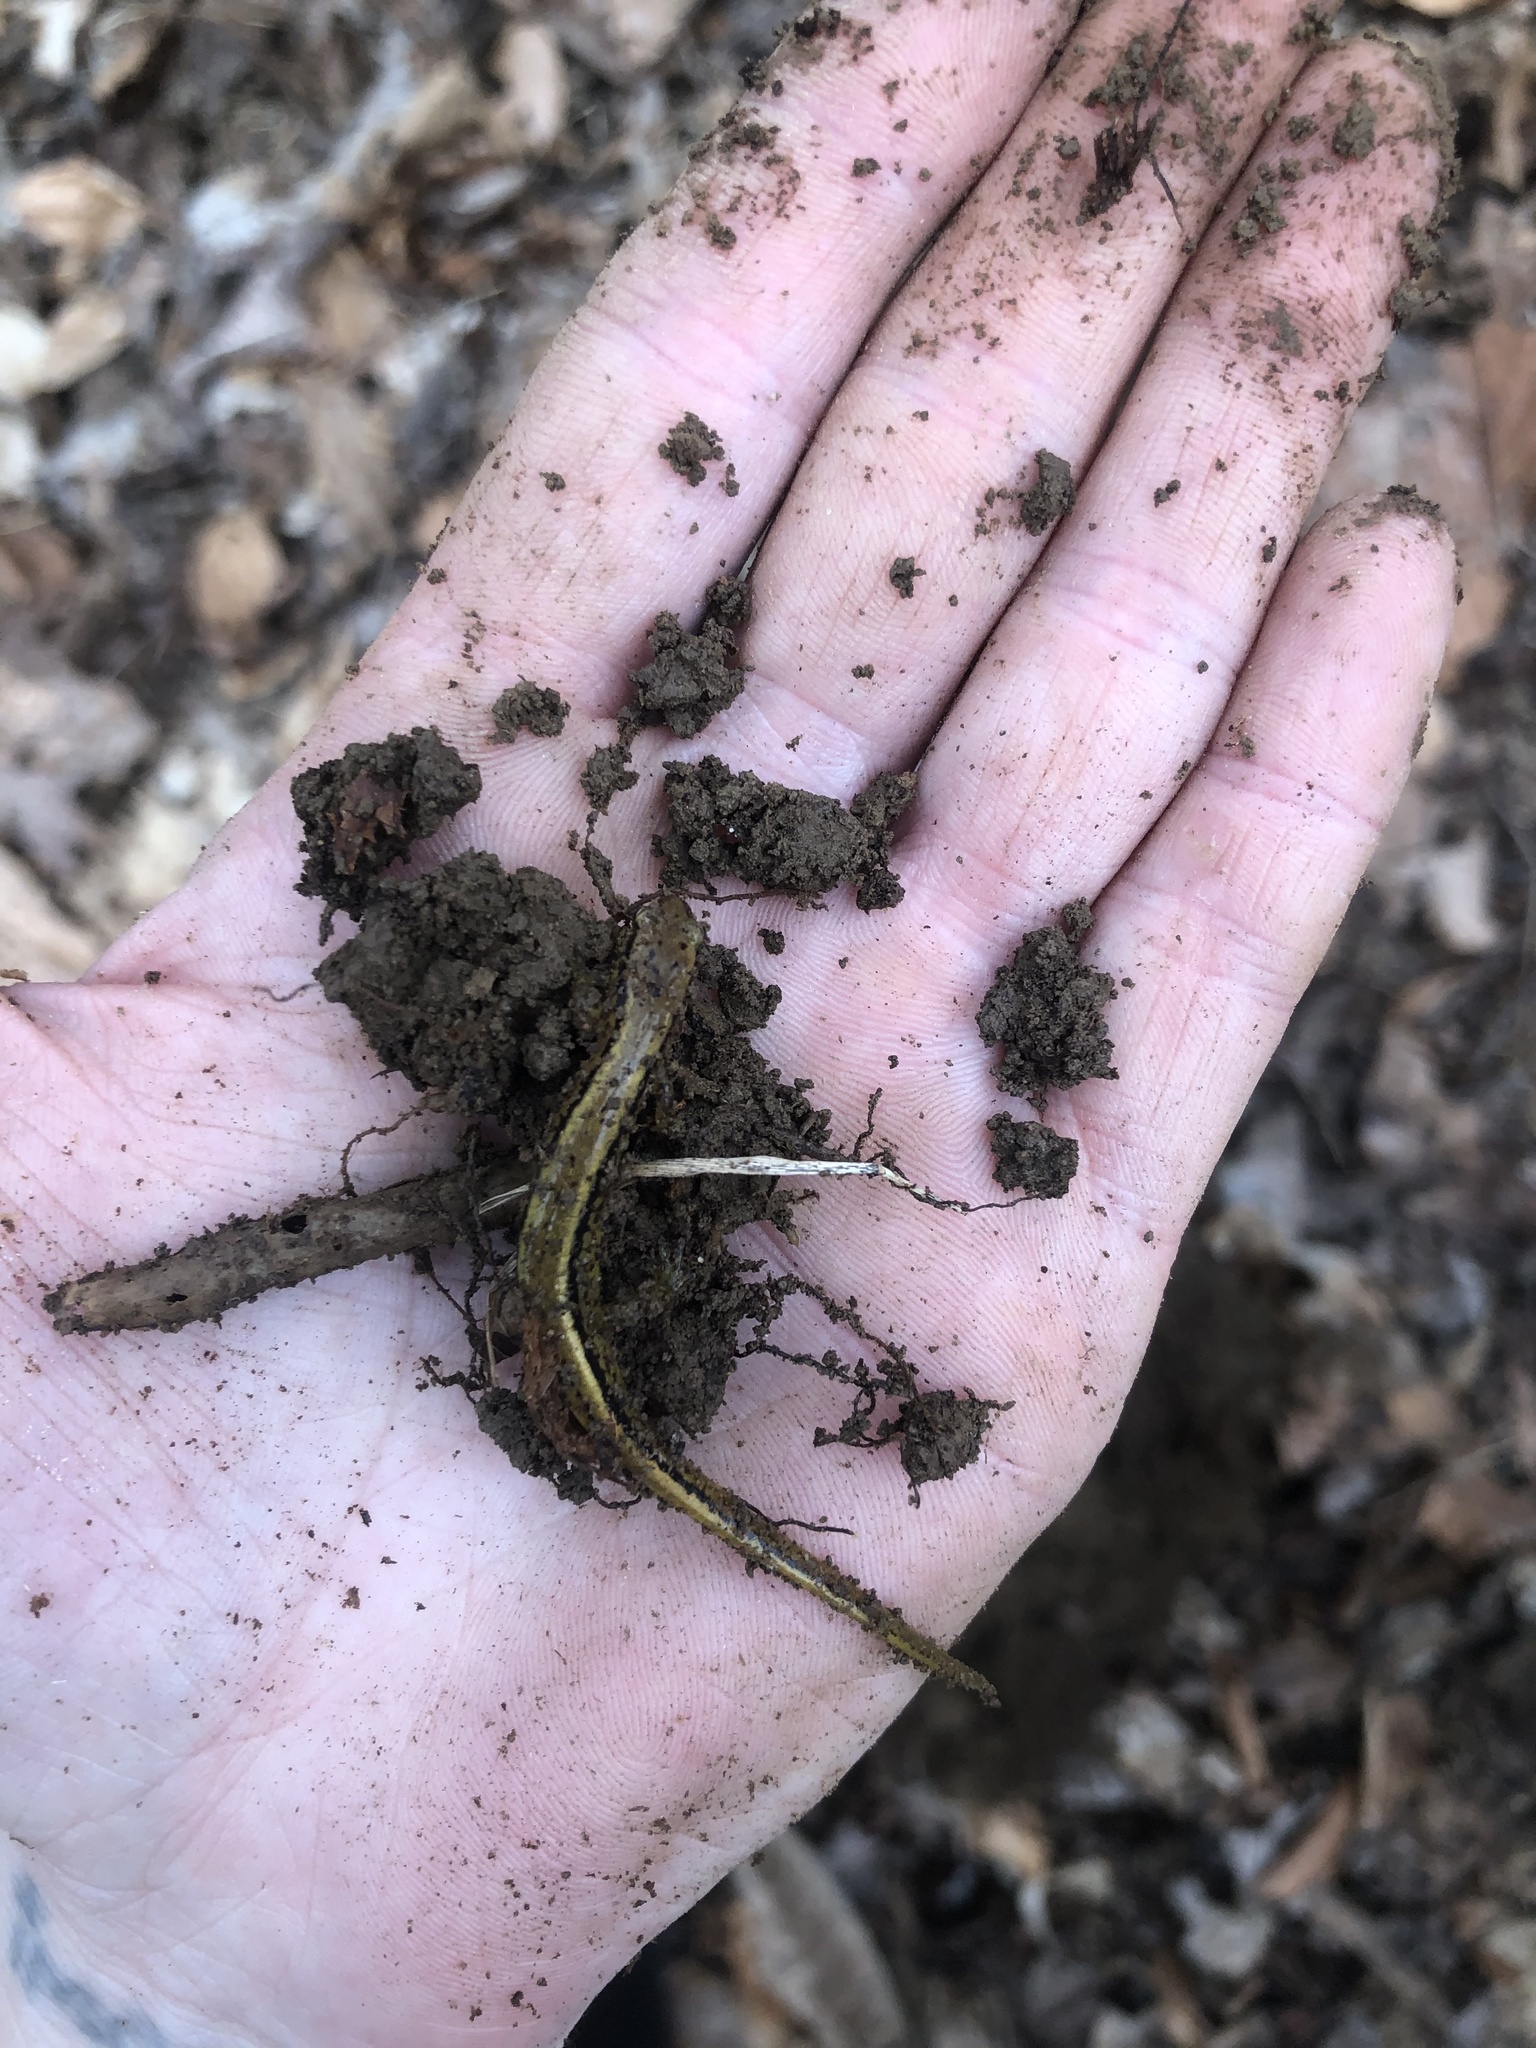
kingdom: Animalia
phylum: Chordata
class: Amphibia
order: Caudata
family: Plethodontidae
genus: Eurycea
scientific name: Eurycea bislineata
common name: Northern two-lined salamander
